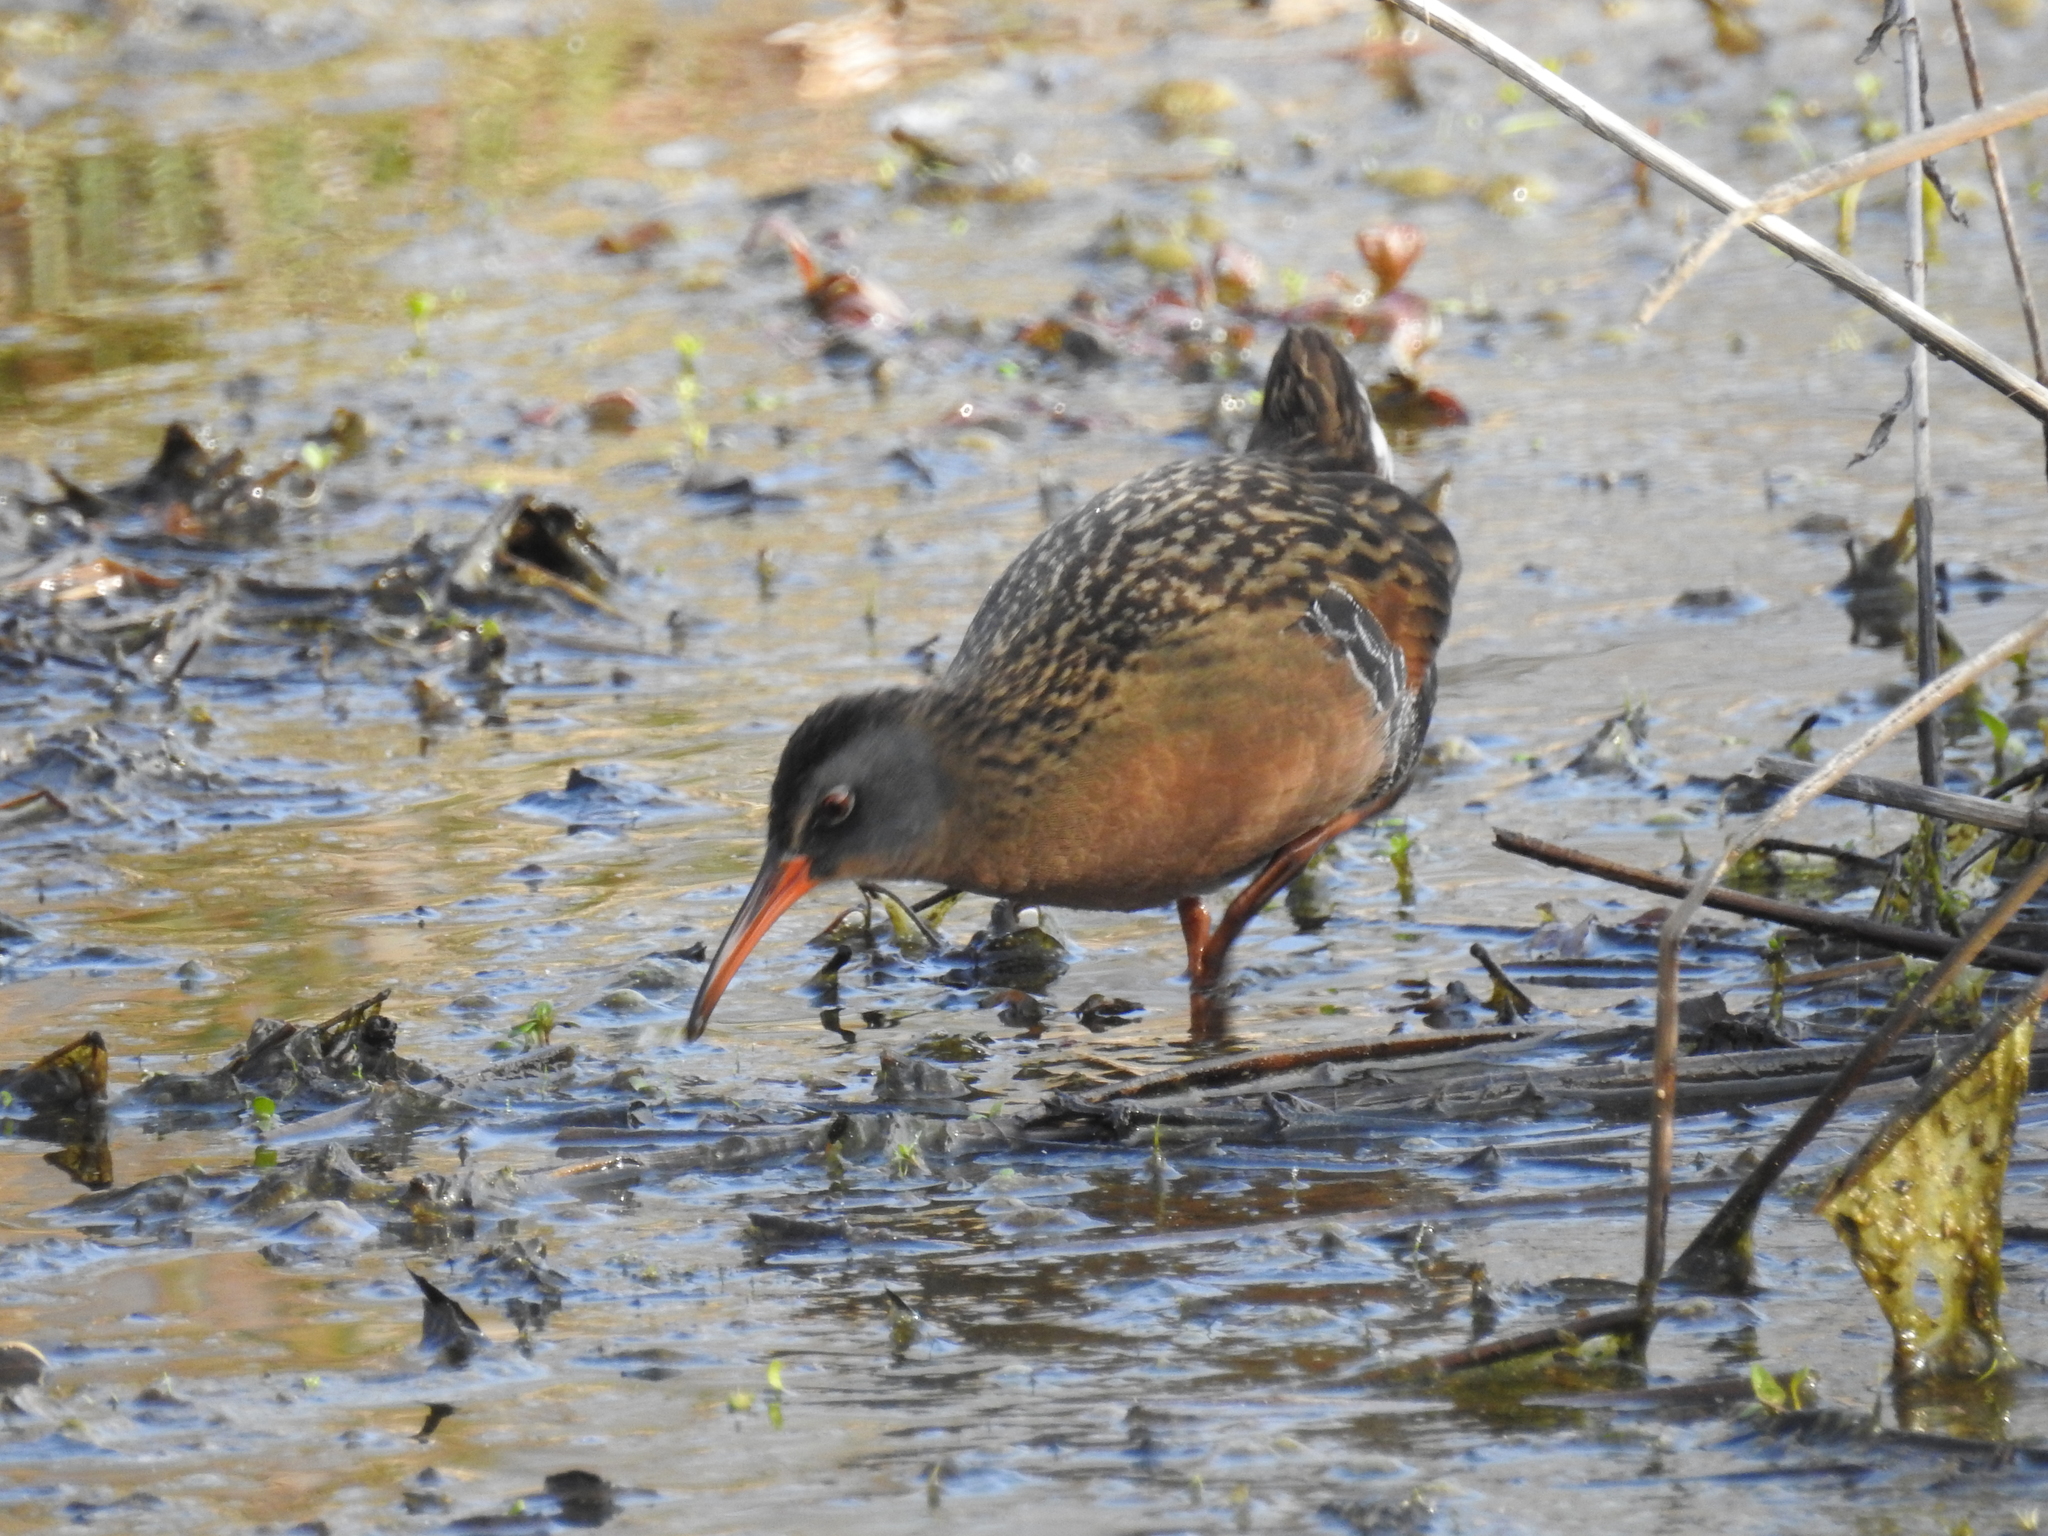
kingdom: Animalia
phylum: Chordata
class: Aves
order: Gruiformes
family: Rallidae
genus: Rallus
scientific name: Rallus limicola
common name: Virginia rail
